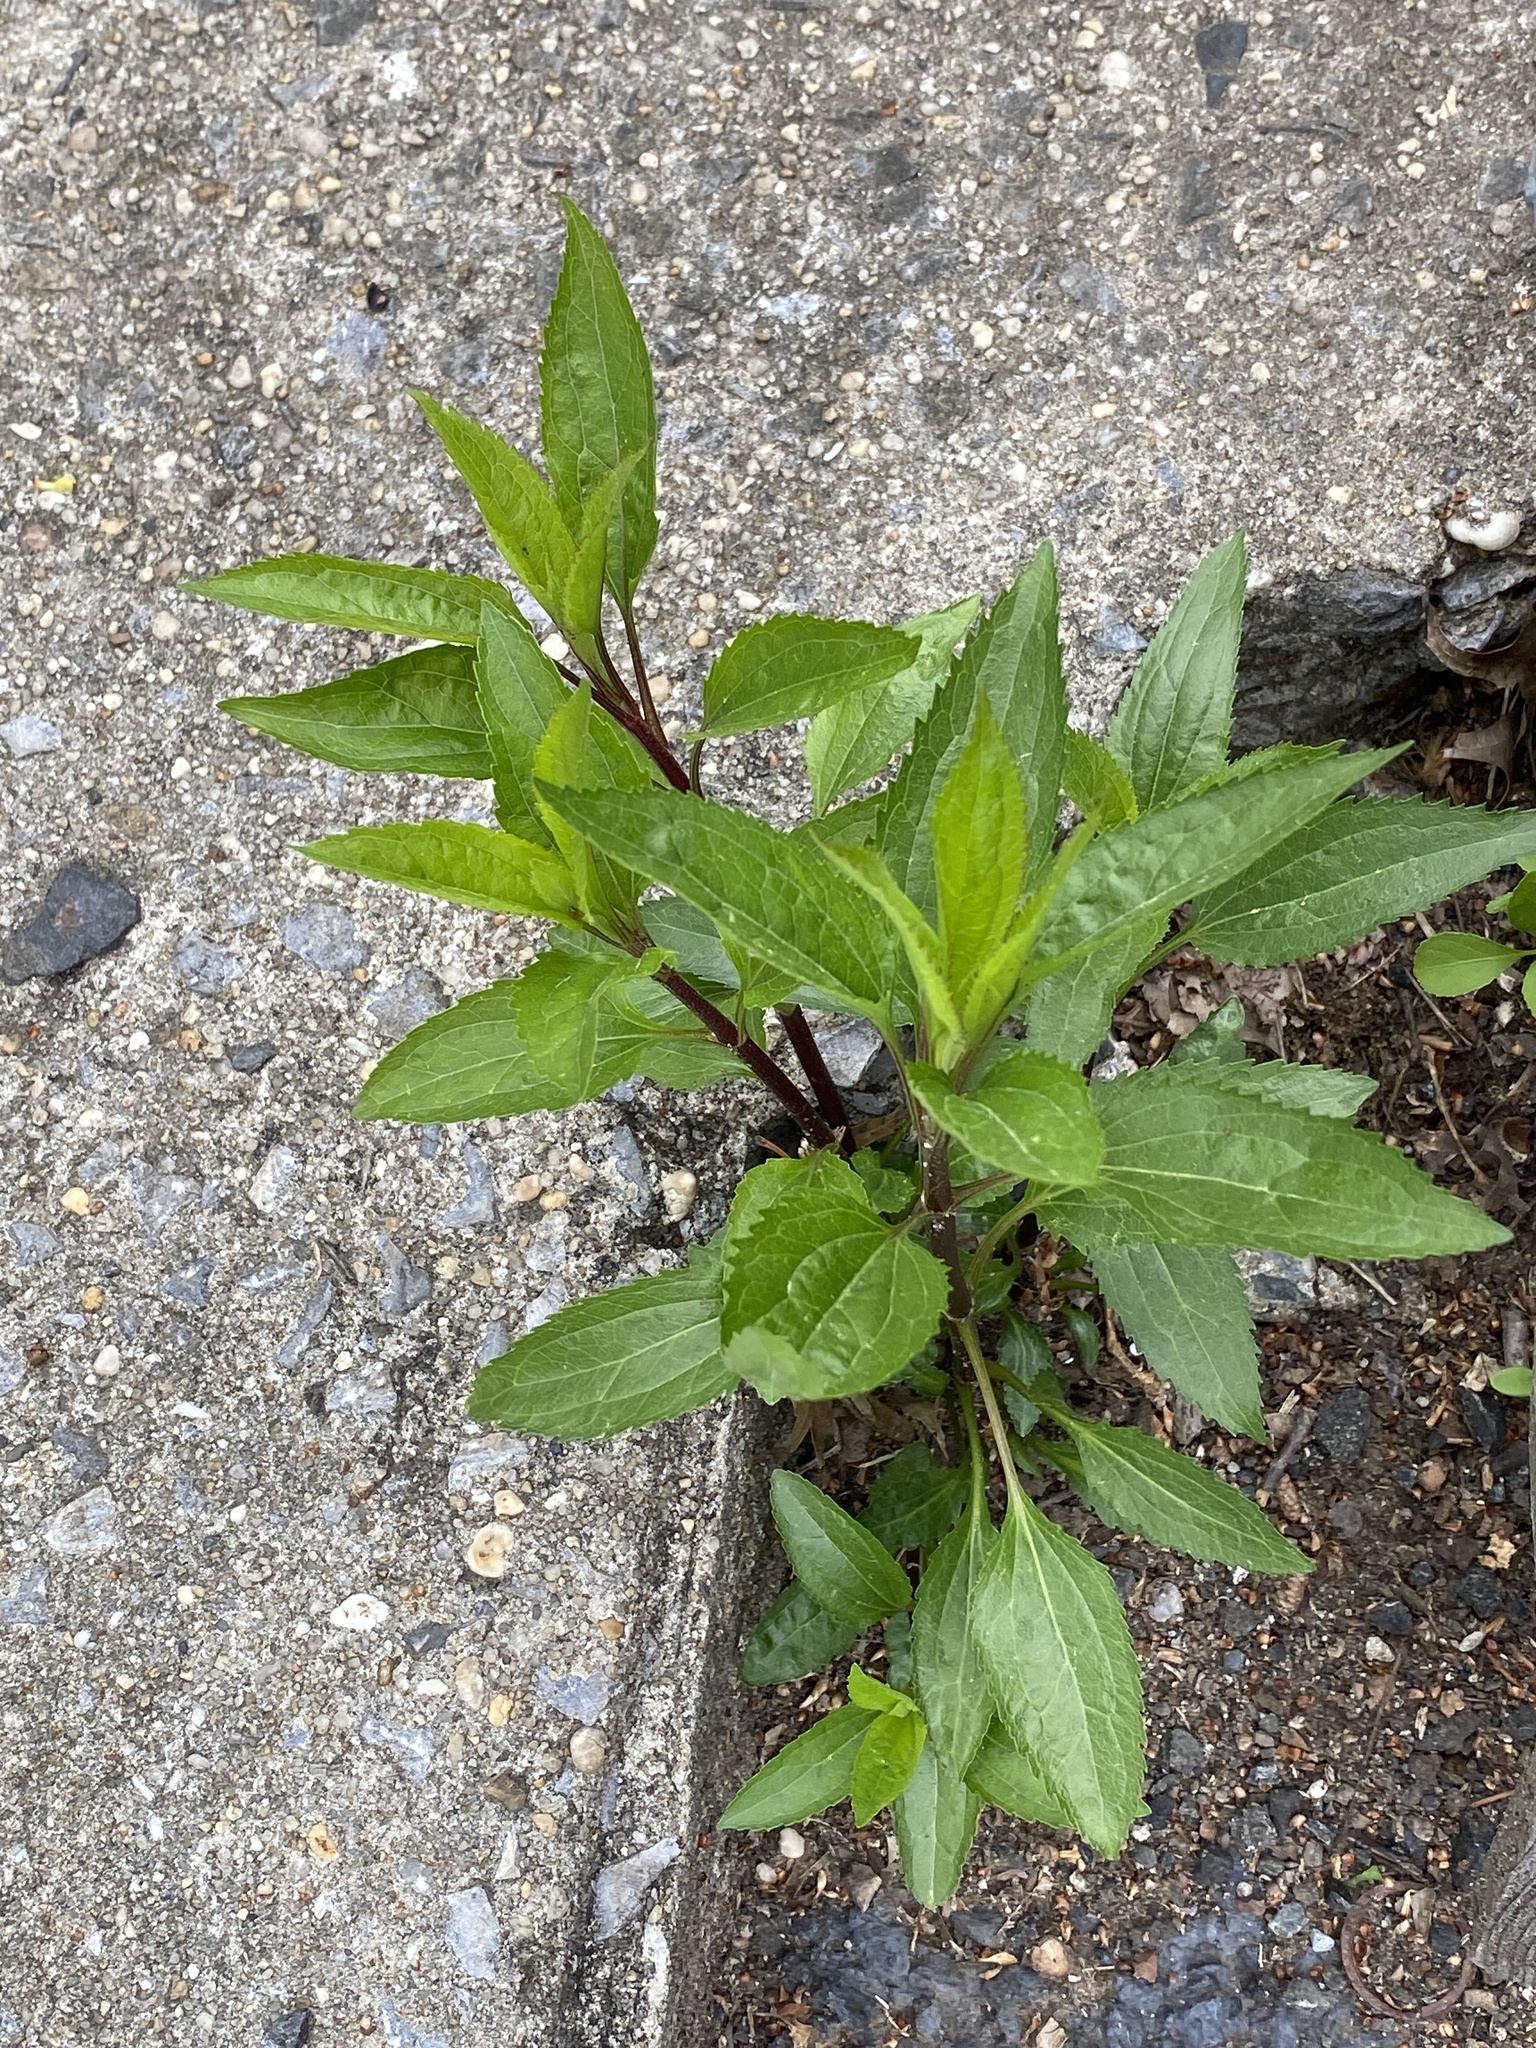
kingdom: Plantae
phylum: Tracheophyta
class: Magnoliopsida
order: Asterales
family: Asteraceae
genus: Eupatorium
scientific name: Eupatorium serotinum
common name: Late boneset
